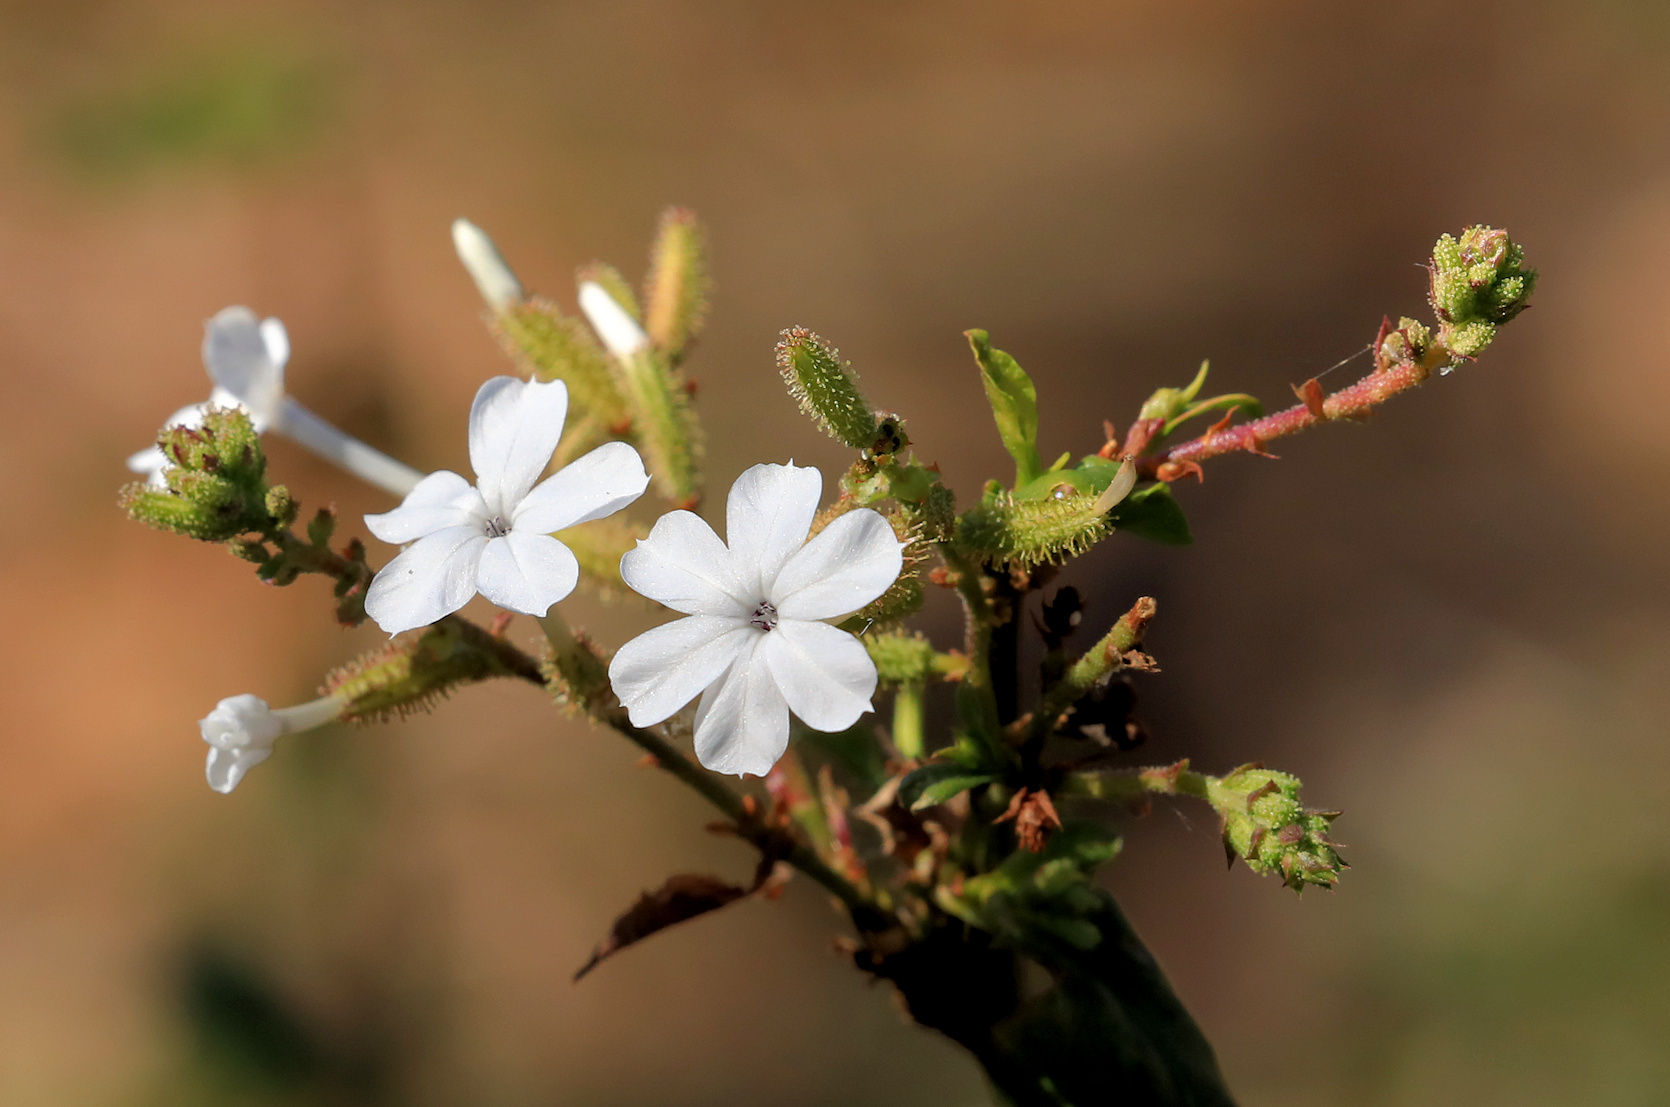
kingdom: Plantae
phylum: Tracheophyta
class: Magnoliopsida
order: Caryophyllales
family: Plumbaginaceae
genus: Plumbago
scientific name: Plumbago zeylanica
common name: Doctorbush
